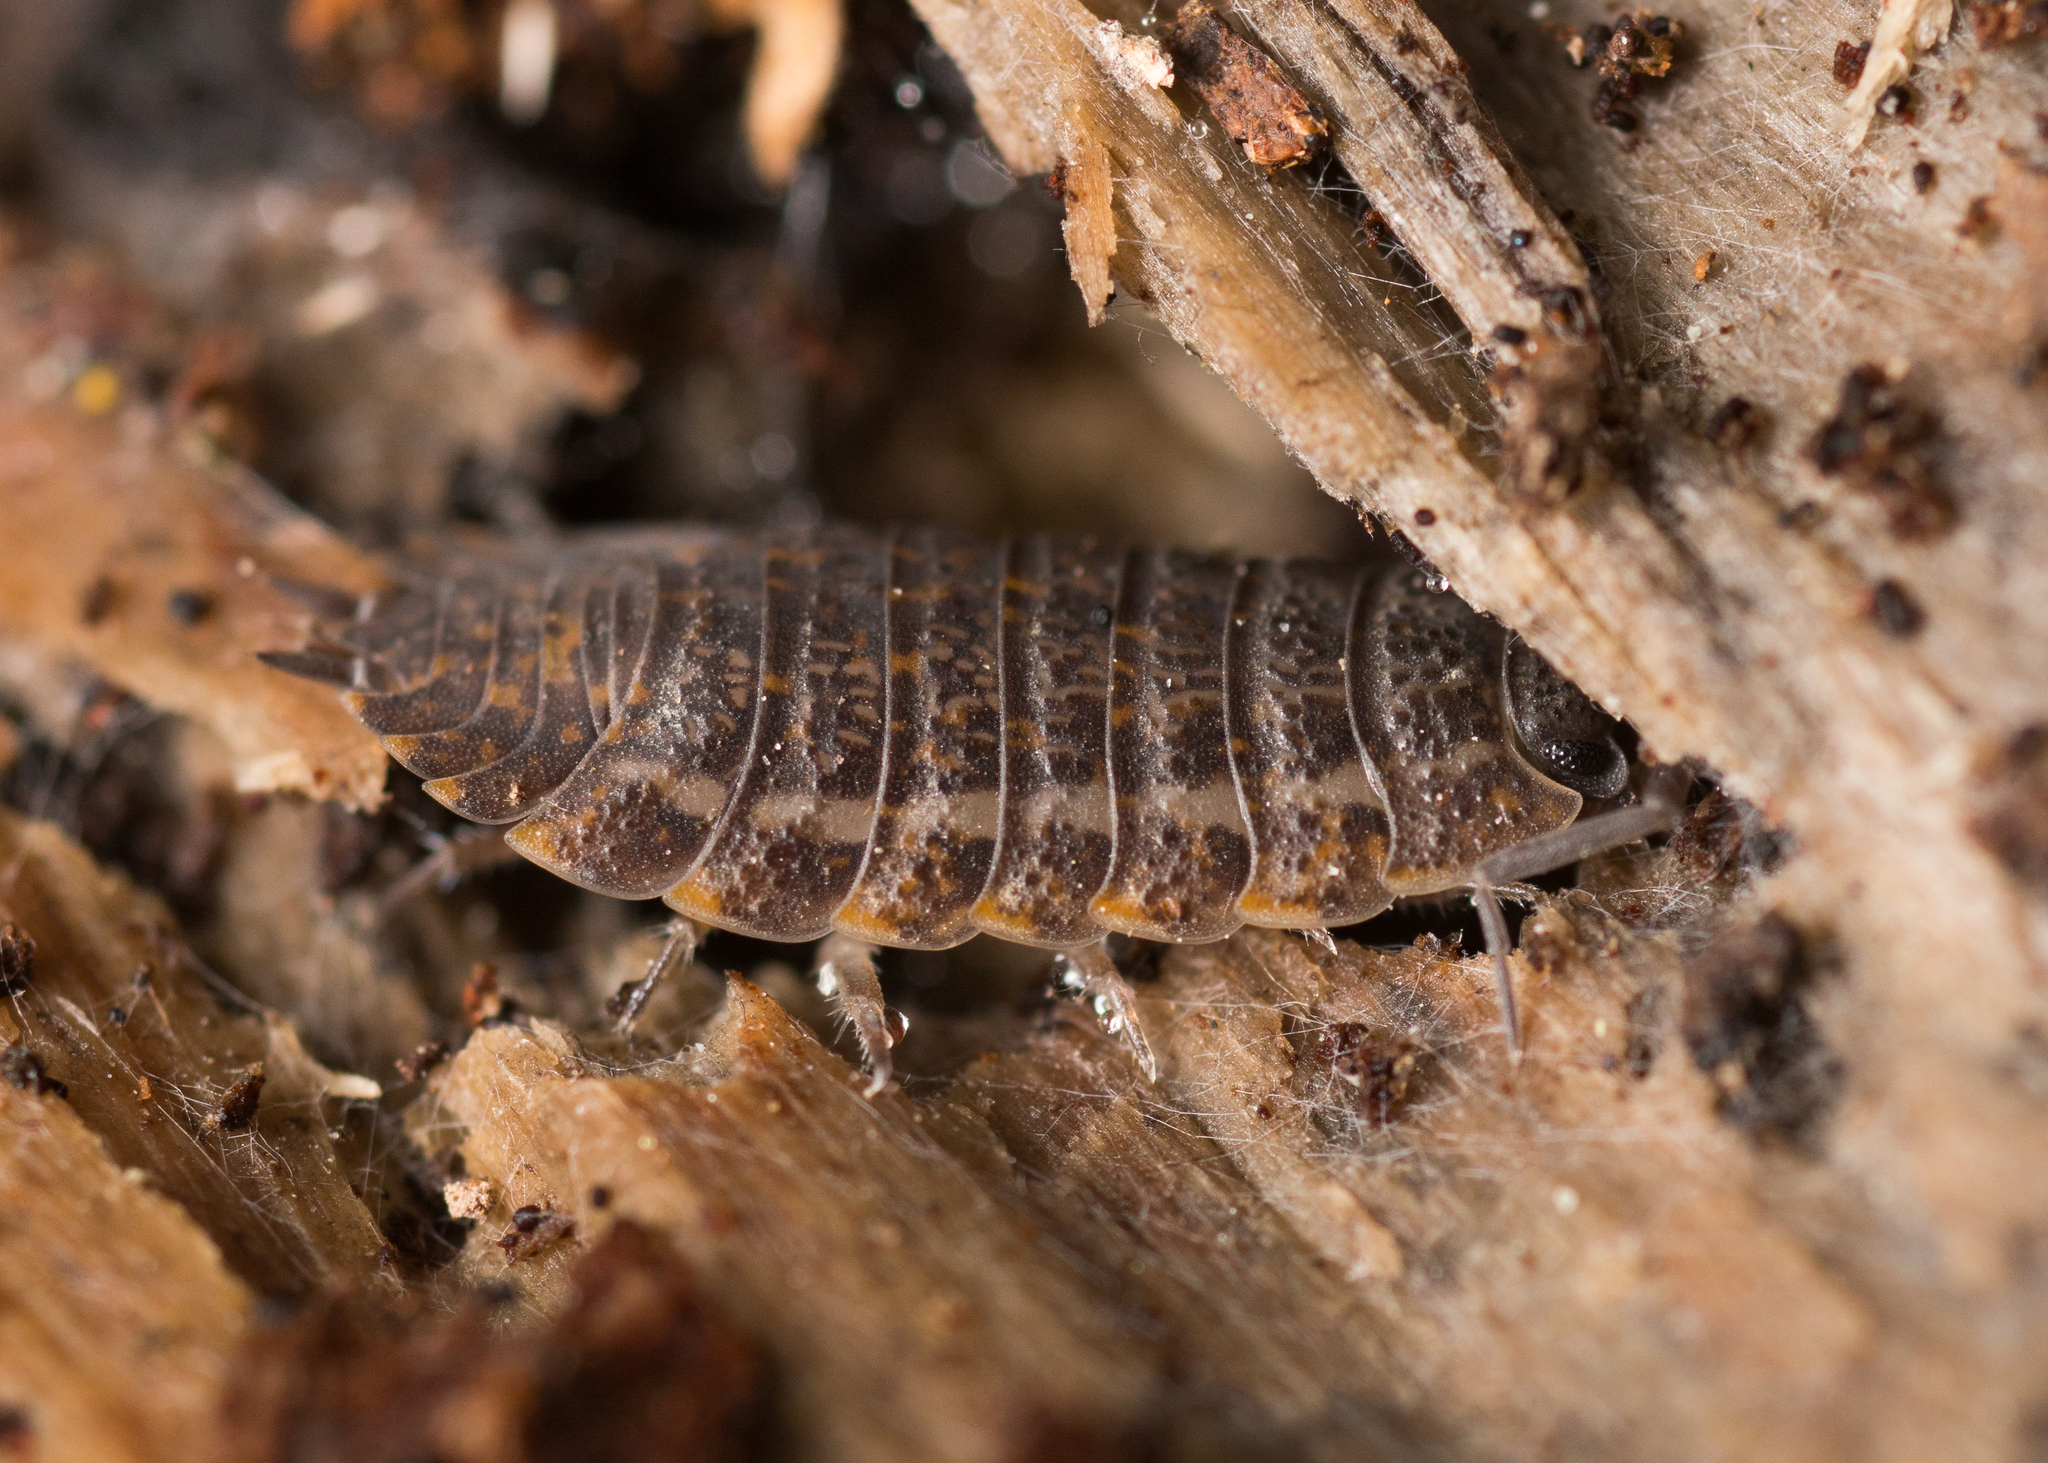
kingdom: Animalia
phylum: Arthropoda
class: Malacostraca
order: Isopoda
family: Trachelipodidae
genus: Trachelipus
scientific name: Trachelipus rathkii
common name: Isopod
